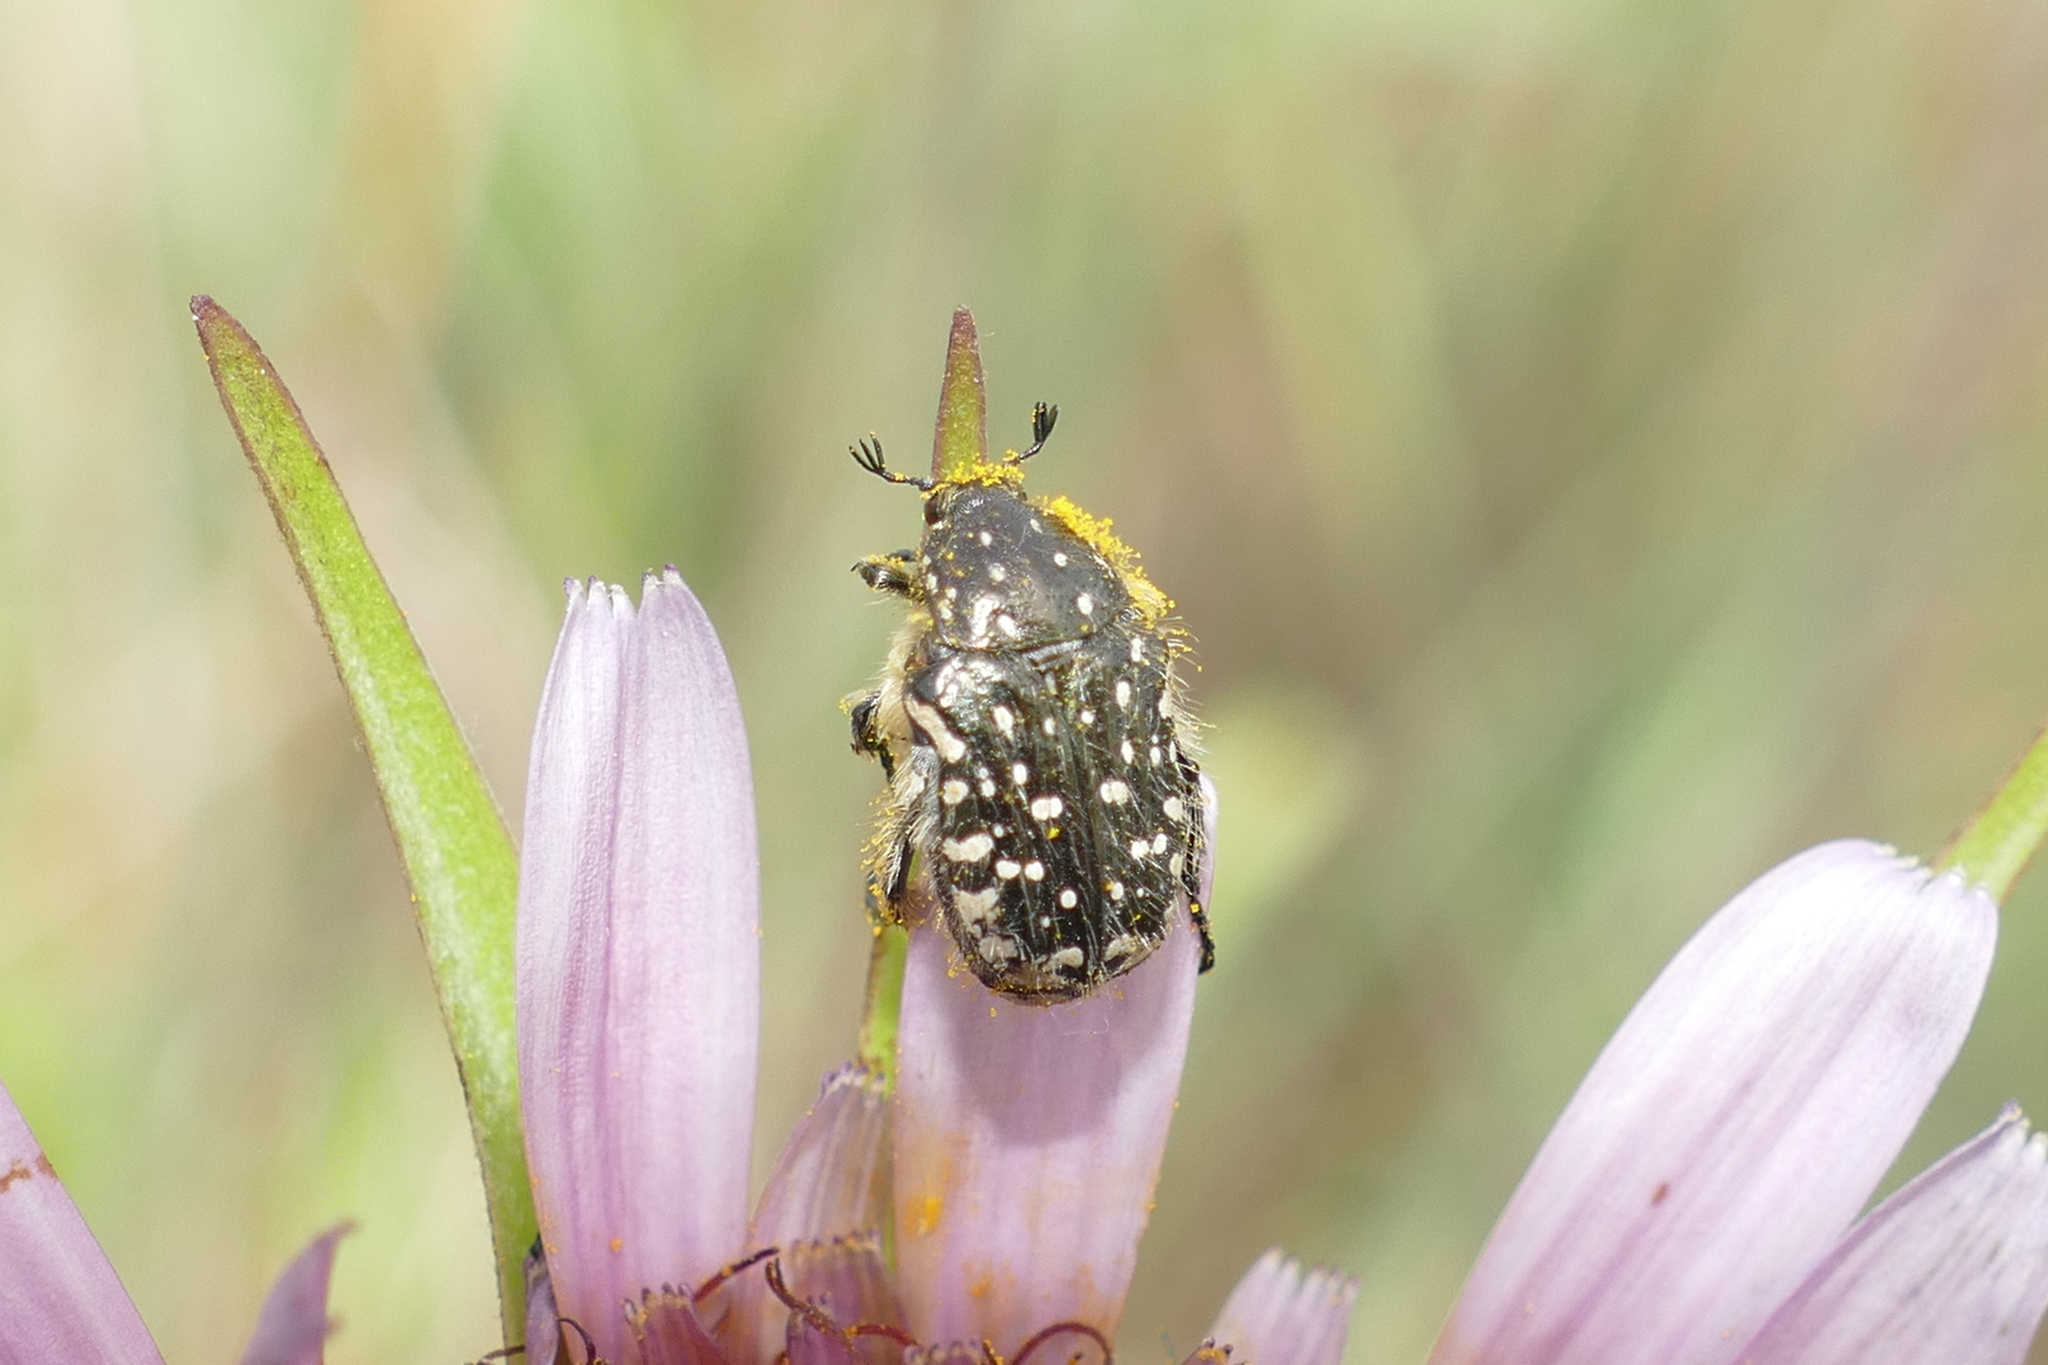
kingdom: Animalia
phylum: Arthropoda
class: Insecta
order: Coleoptera
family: Scarabaeidae
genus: Oxythyrea
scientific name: Oxythyrea funesta
